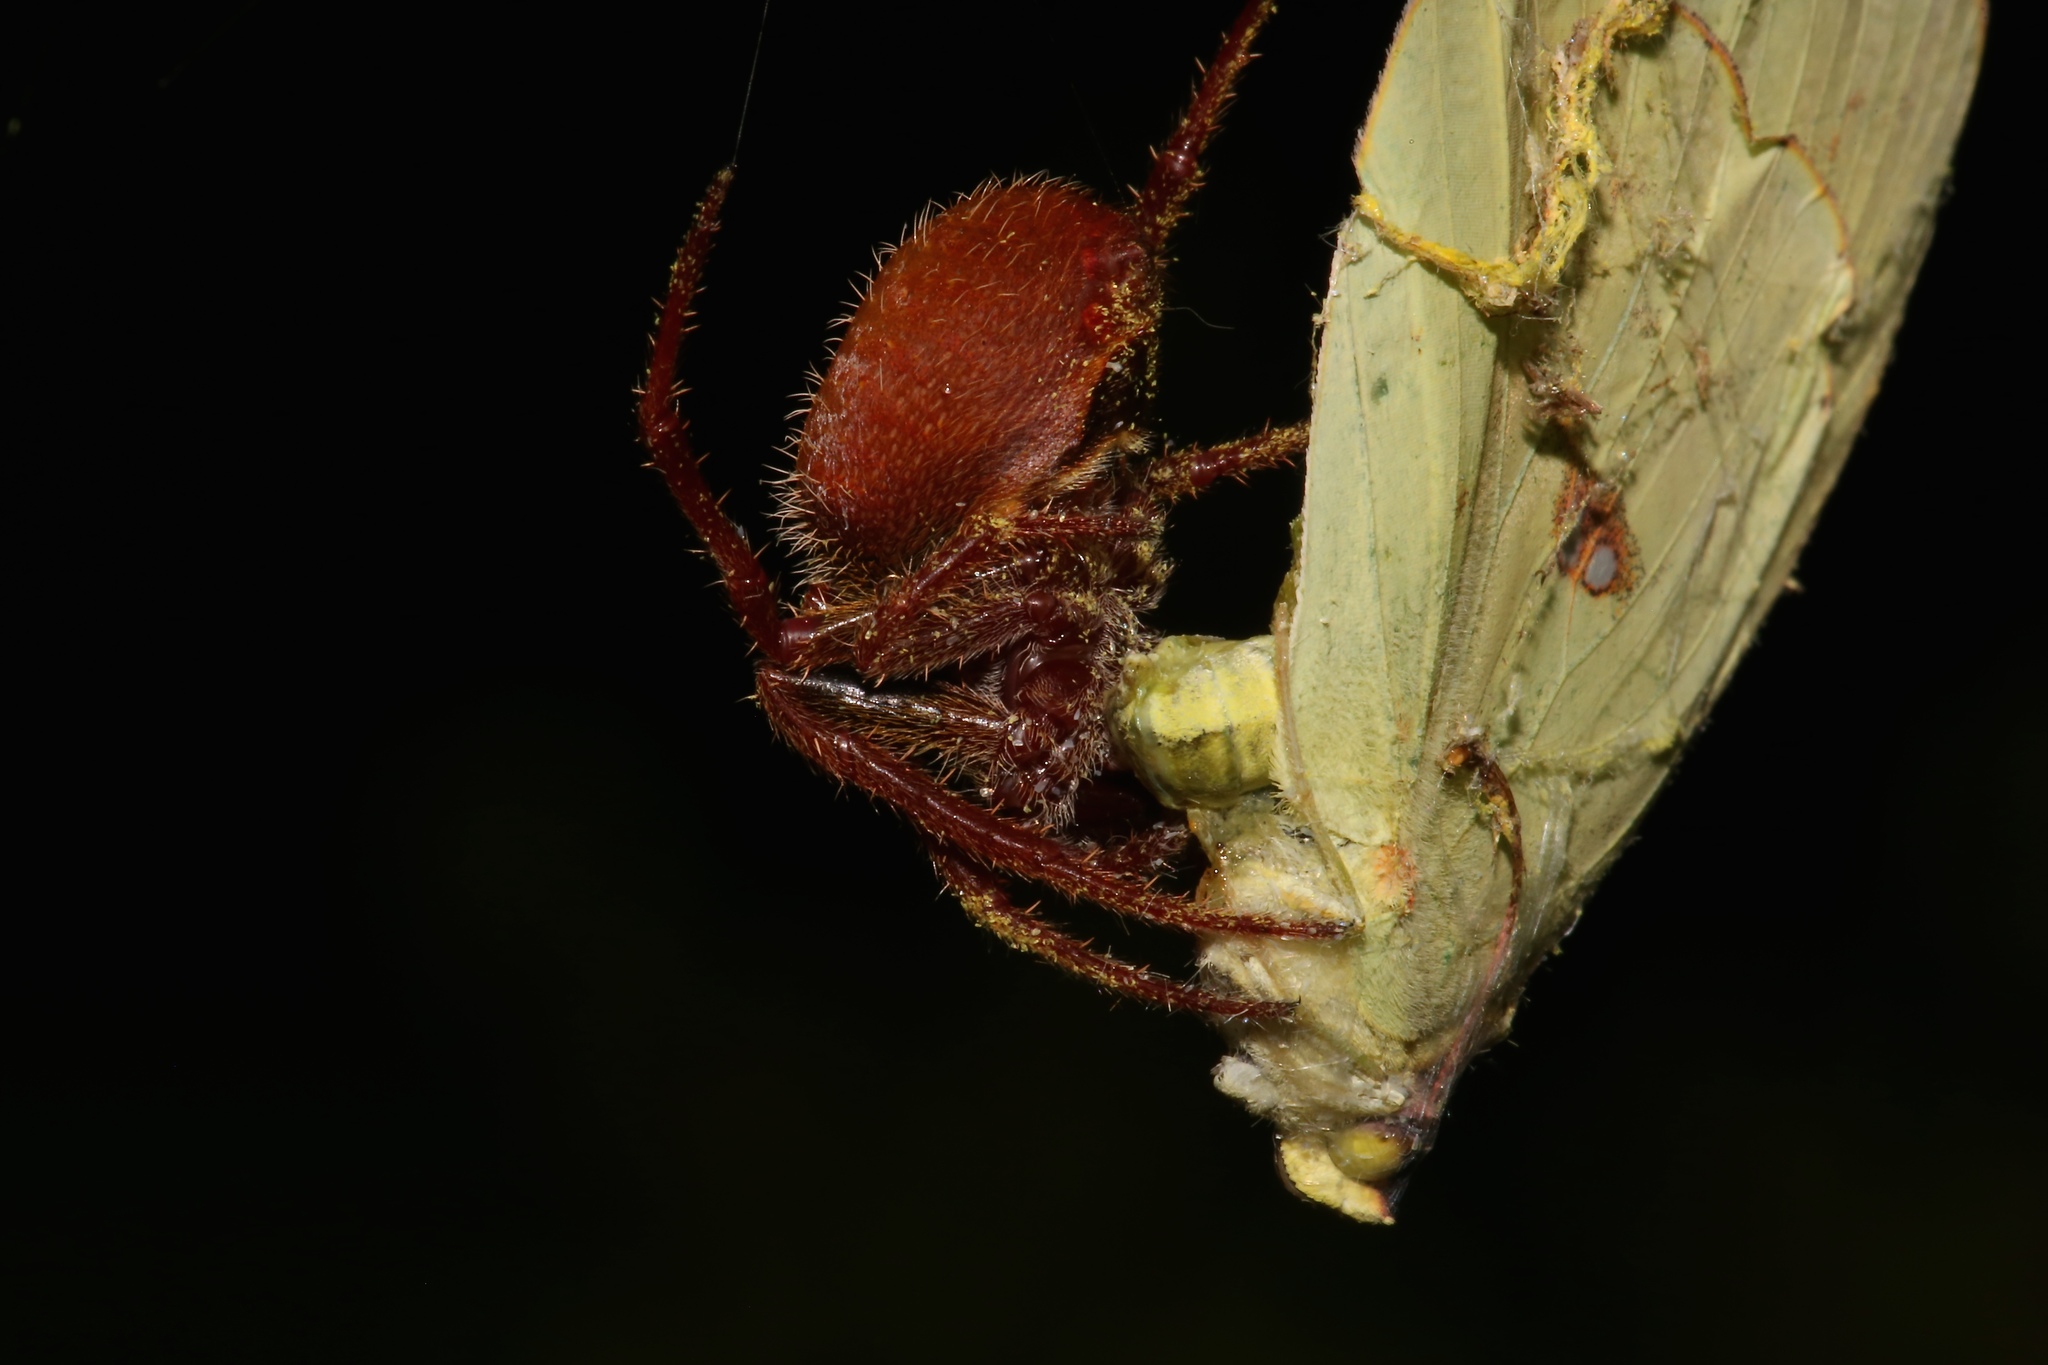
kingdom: Animalia
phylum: Arthropoda
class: Arachnida
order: Araneae
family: Araneidae
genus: Eriophora
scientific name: Eriophora ravilla
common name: Orb weavers
